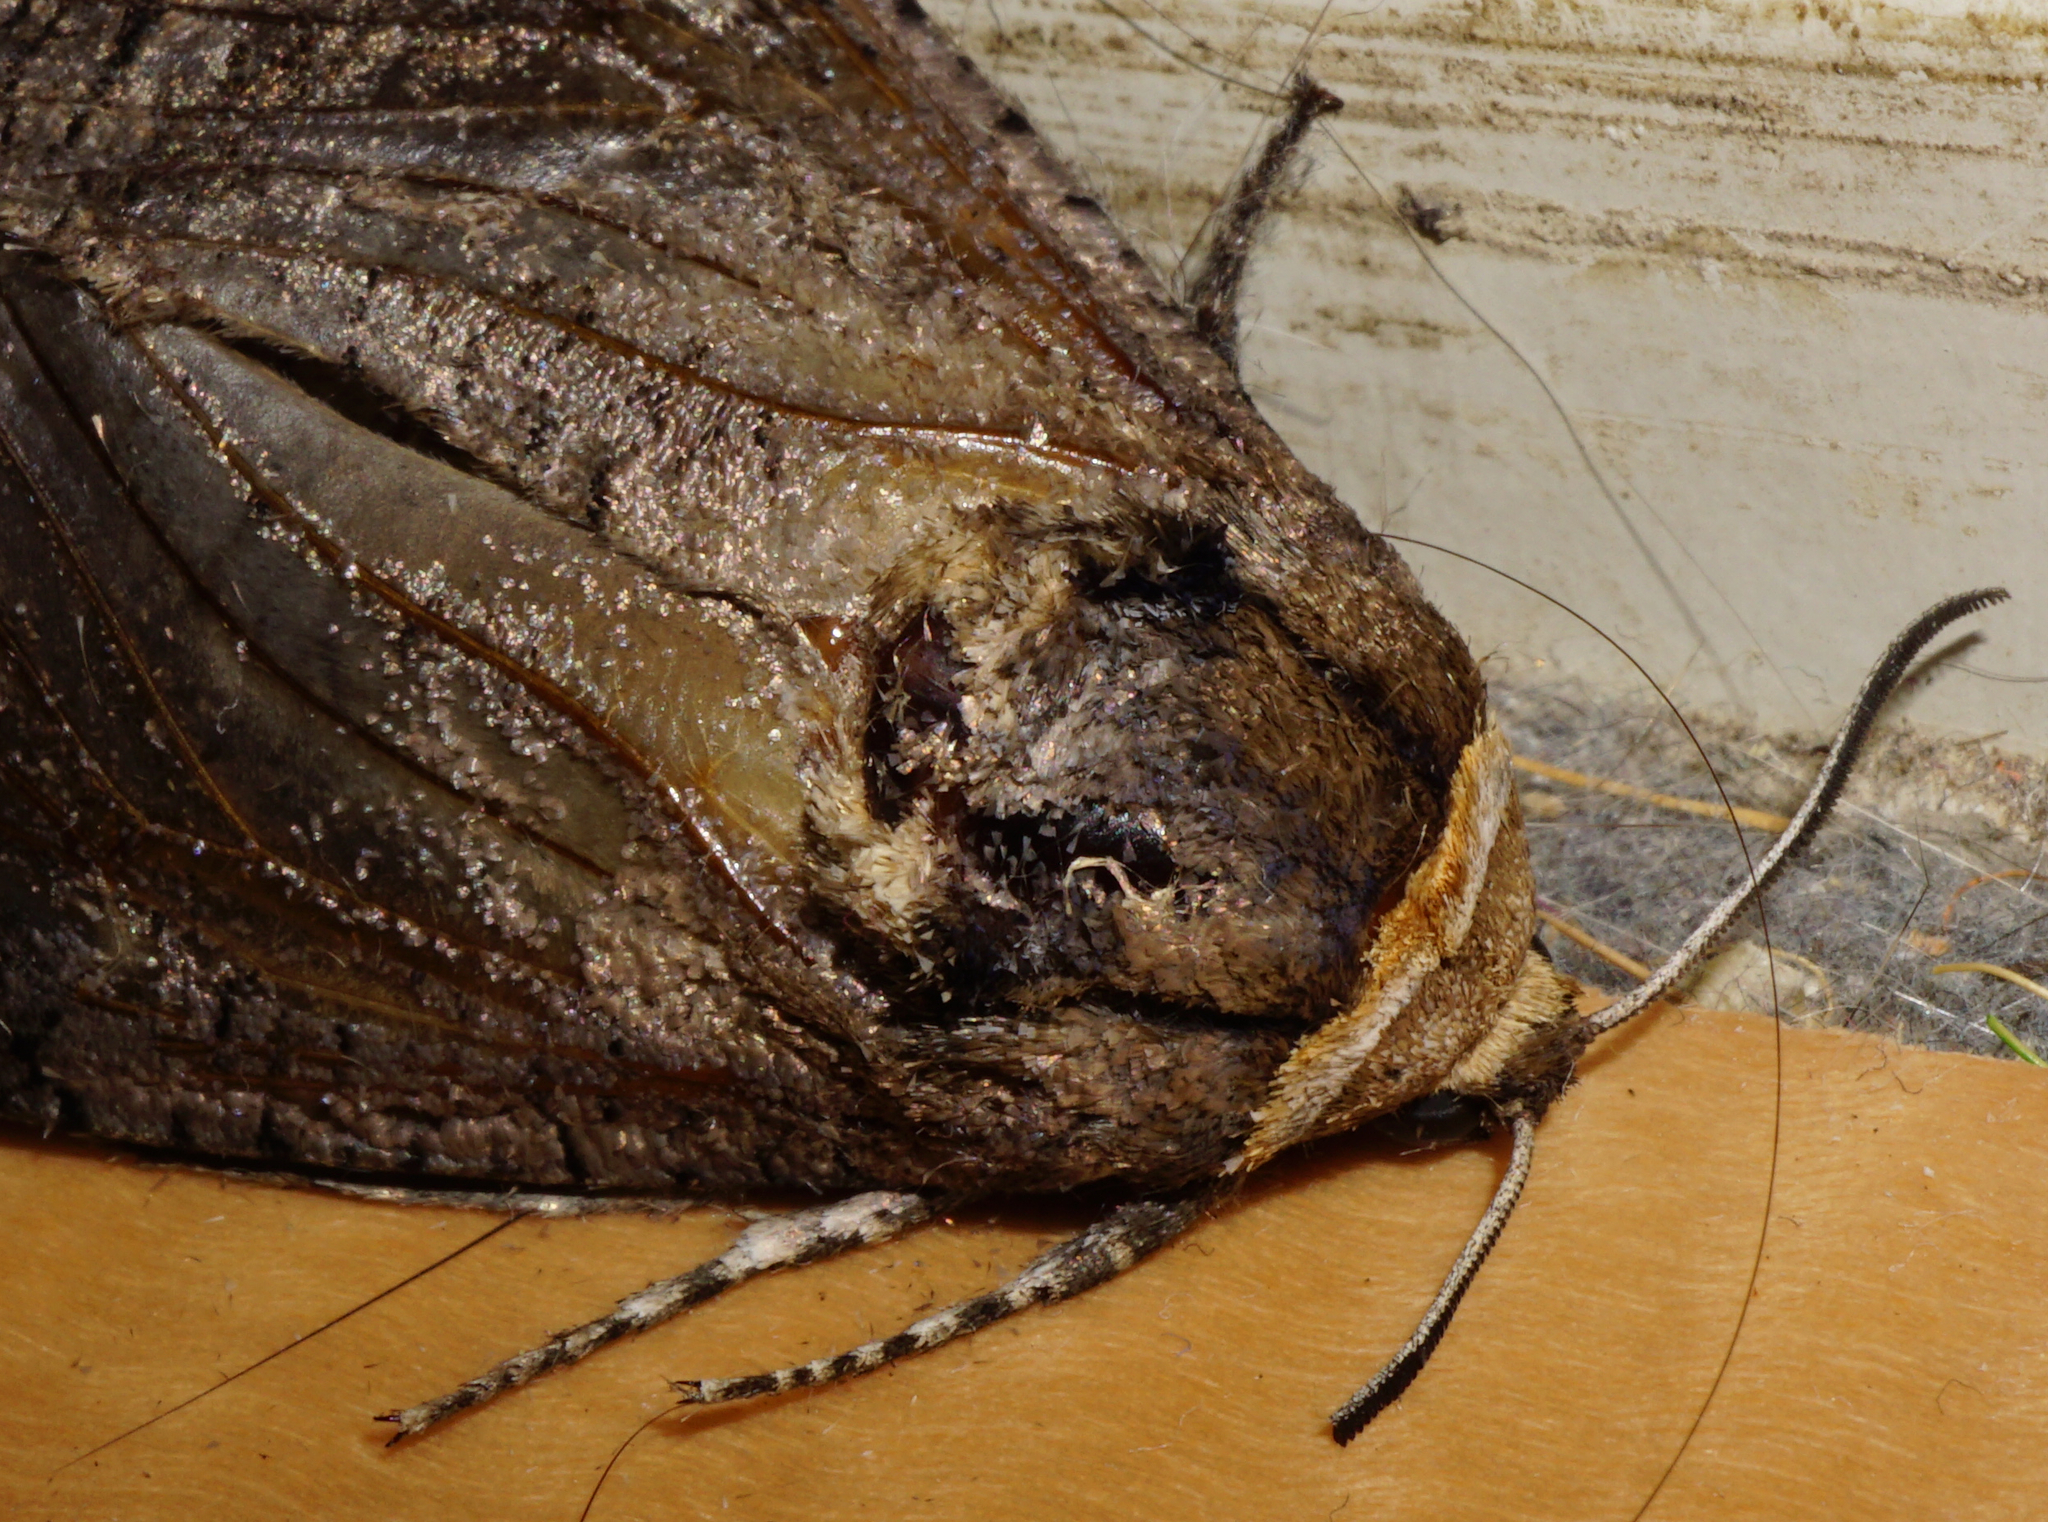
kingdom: Animalia
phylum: Arthropoda
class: Insecta
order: Lepidoptera
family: Cossidae
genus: Cossus
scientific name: Cossus cossus
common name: Goat moth
